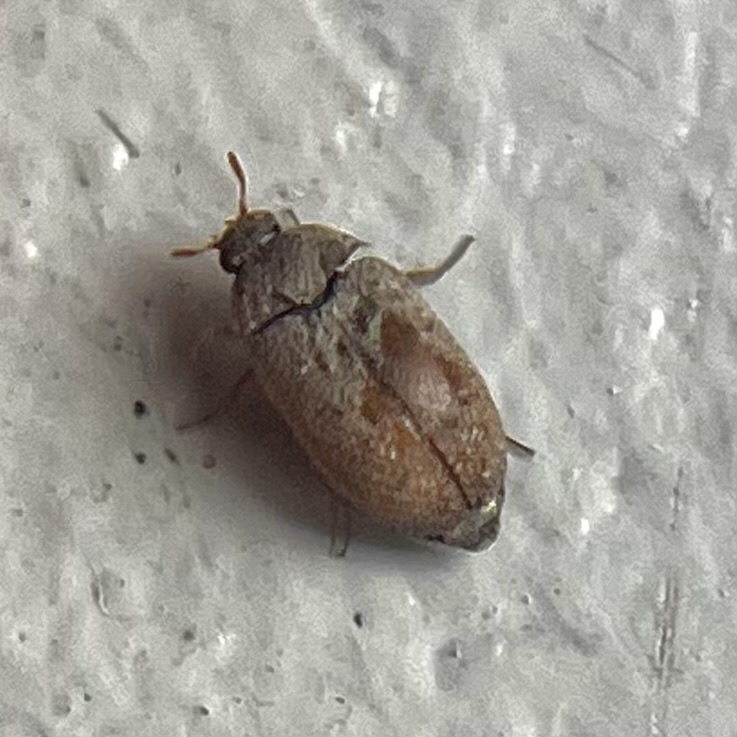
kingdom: Animalia
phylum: Arthropoda
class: Insecta
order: Coleoptera
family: Dermestidae
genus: Attagenus
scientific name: Attagenus smirnovi
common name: Brown carpet beetle
